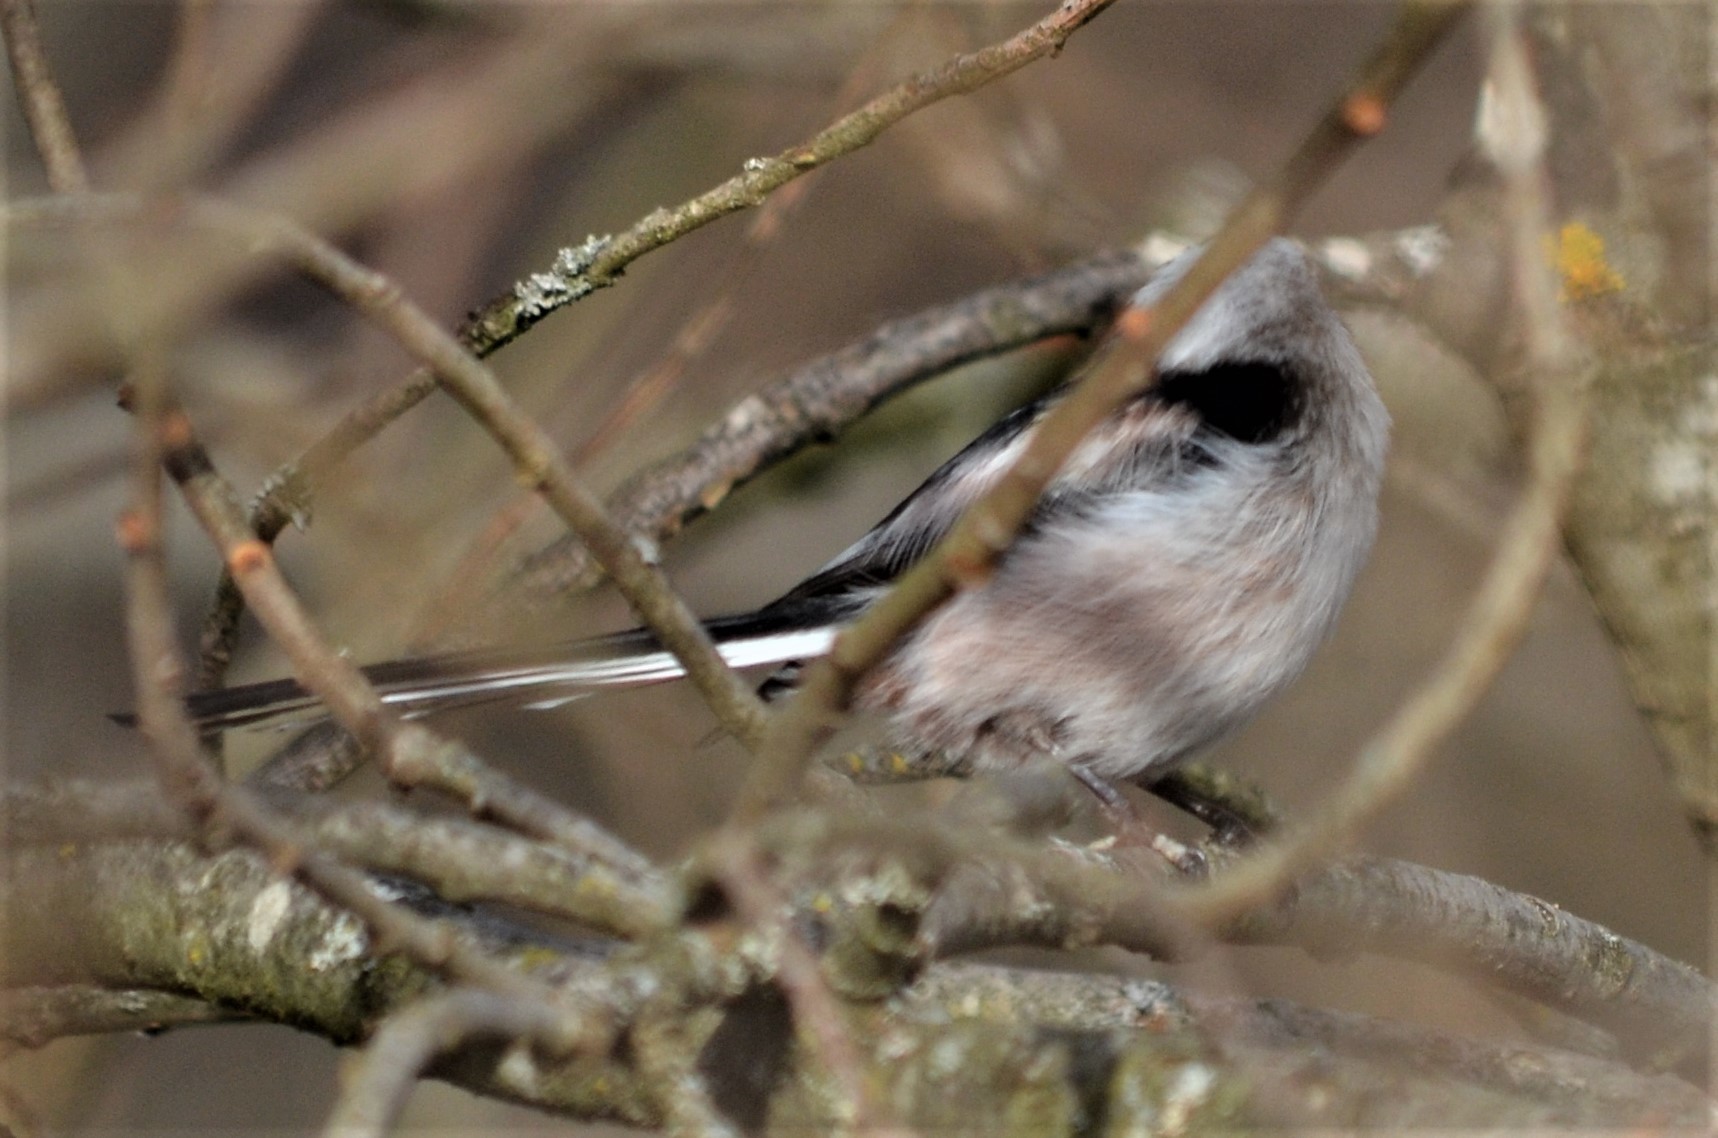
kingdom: Animalia
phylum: Chordata
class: Aves
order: Passeriformes
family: Aegithalidae
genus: Aegithalos
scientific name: Aegithalos caudatus
